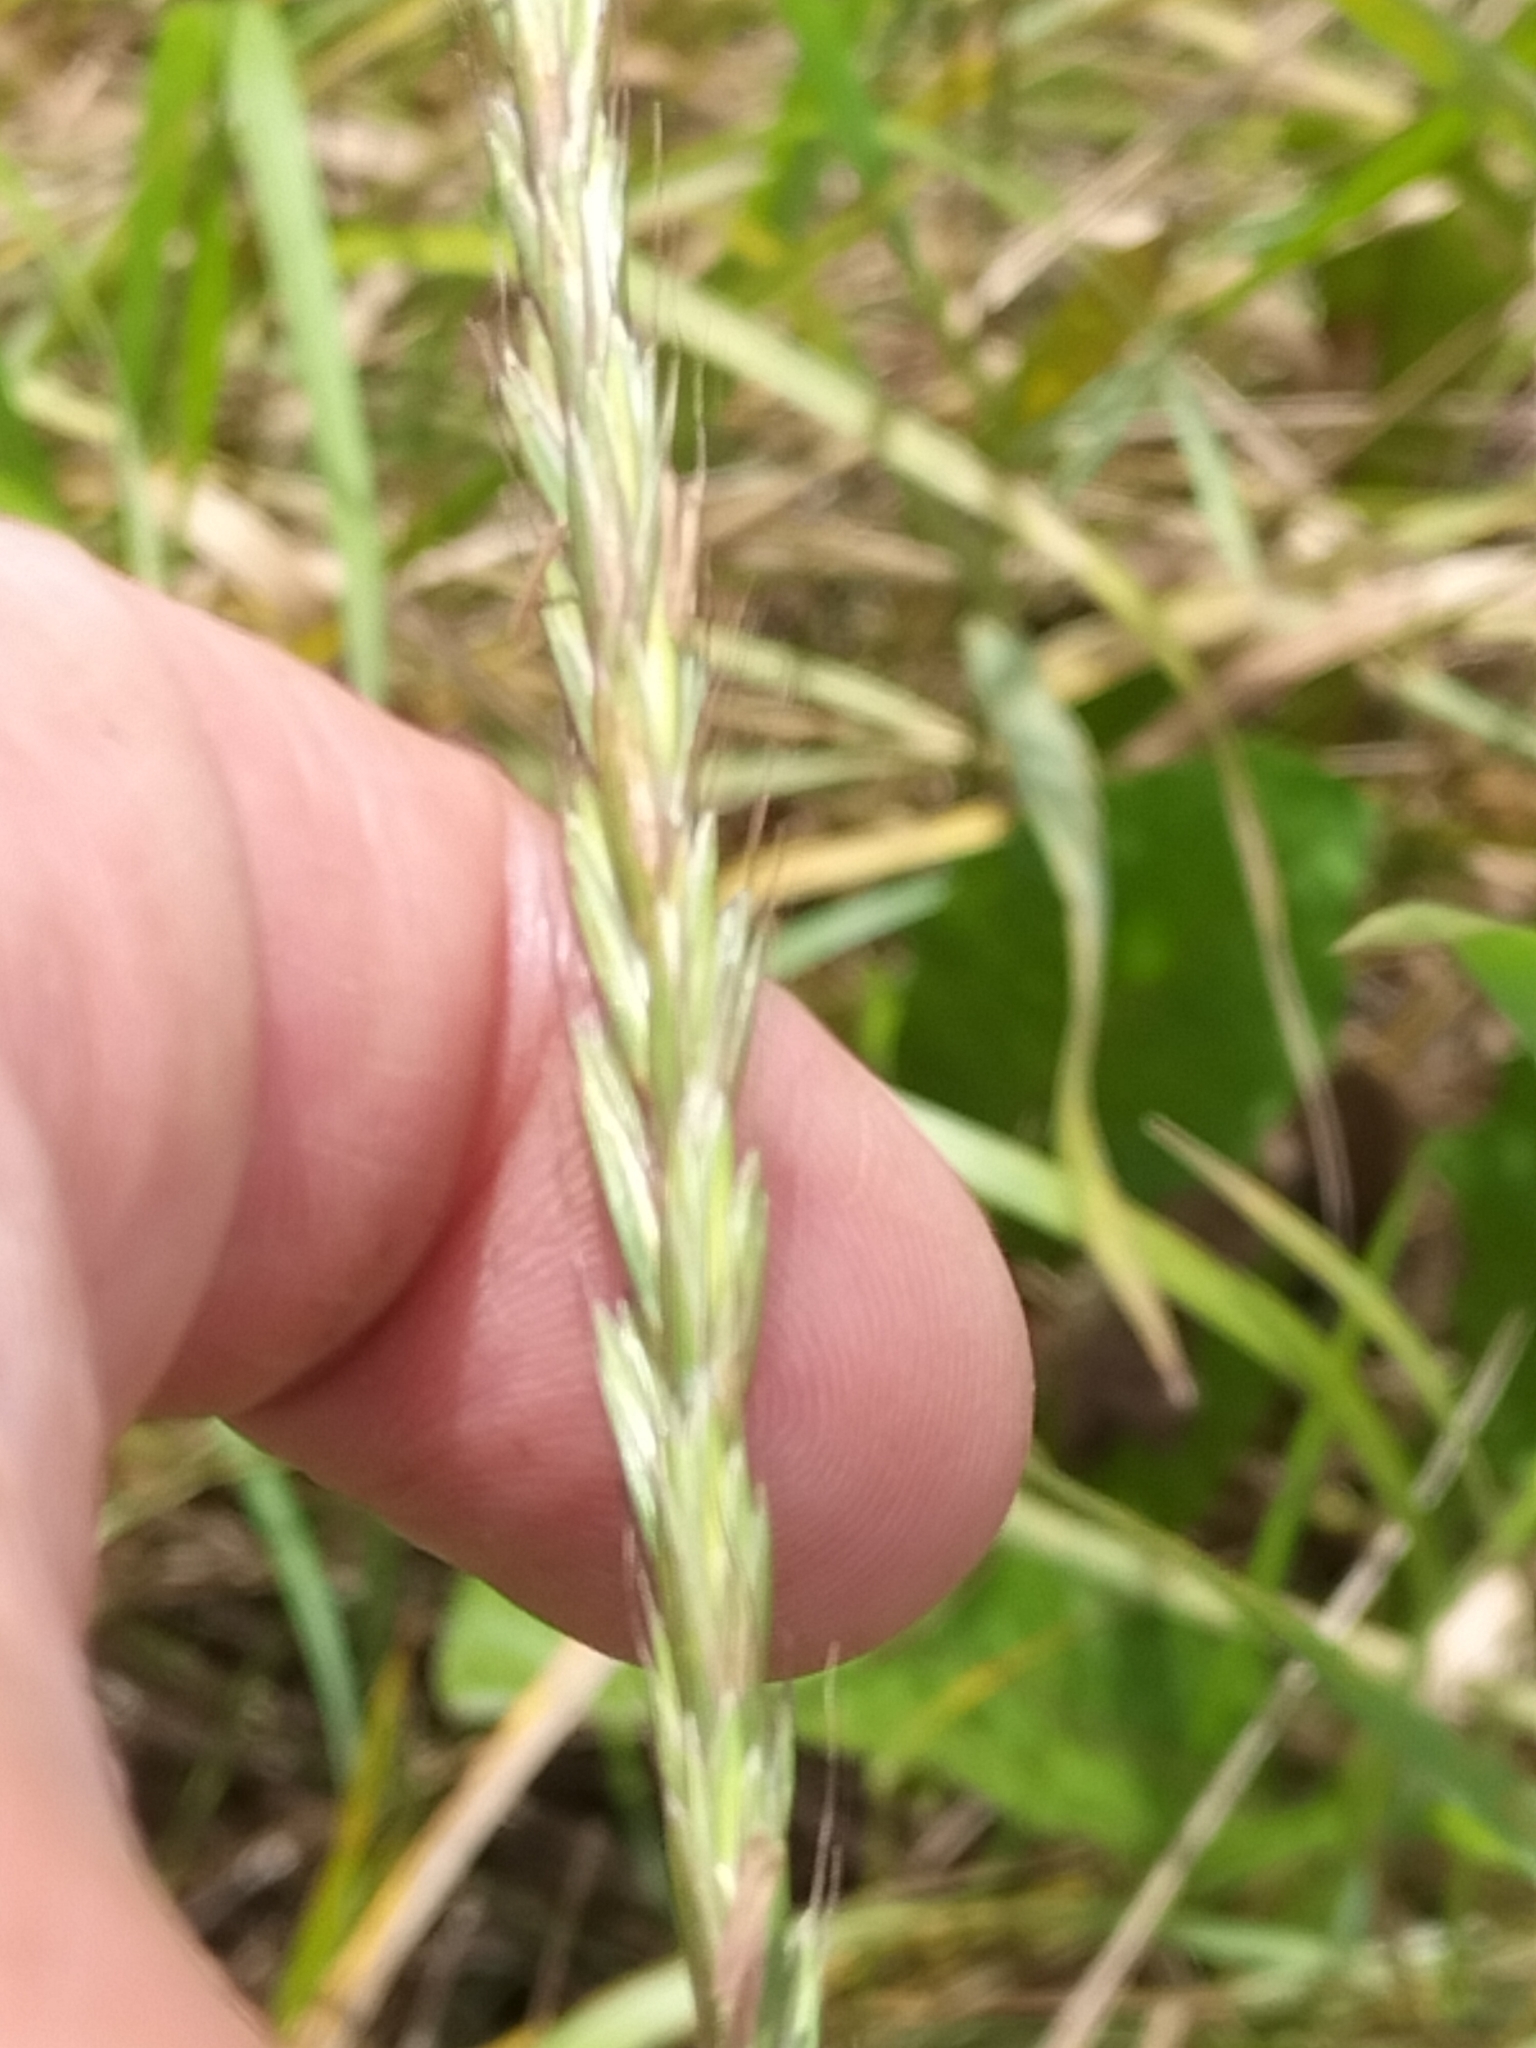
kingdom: Plantae
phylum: Tracheophyta
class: Liliopsida
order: Poales
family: Poaceae
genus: Elymus
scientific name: Elymus repens
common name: Quackgrass
